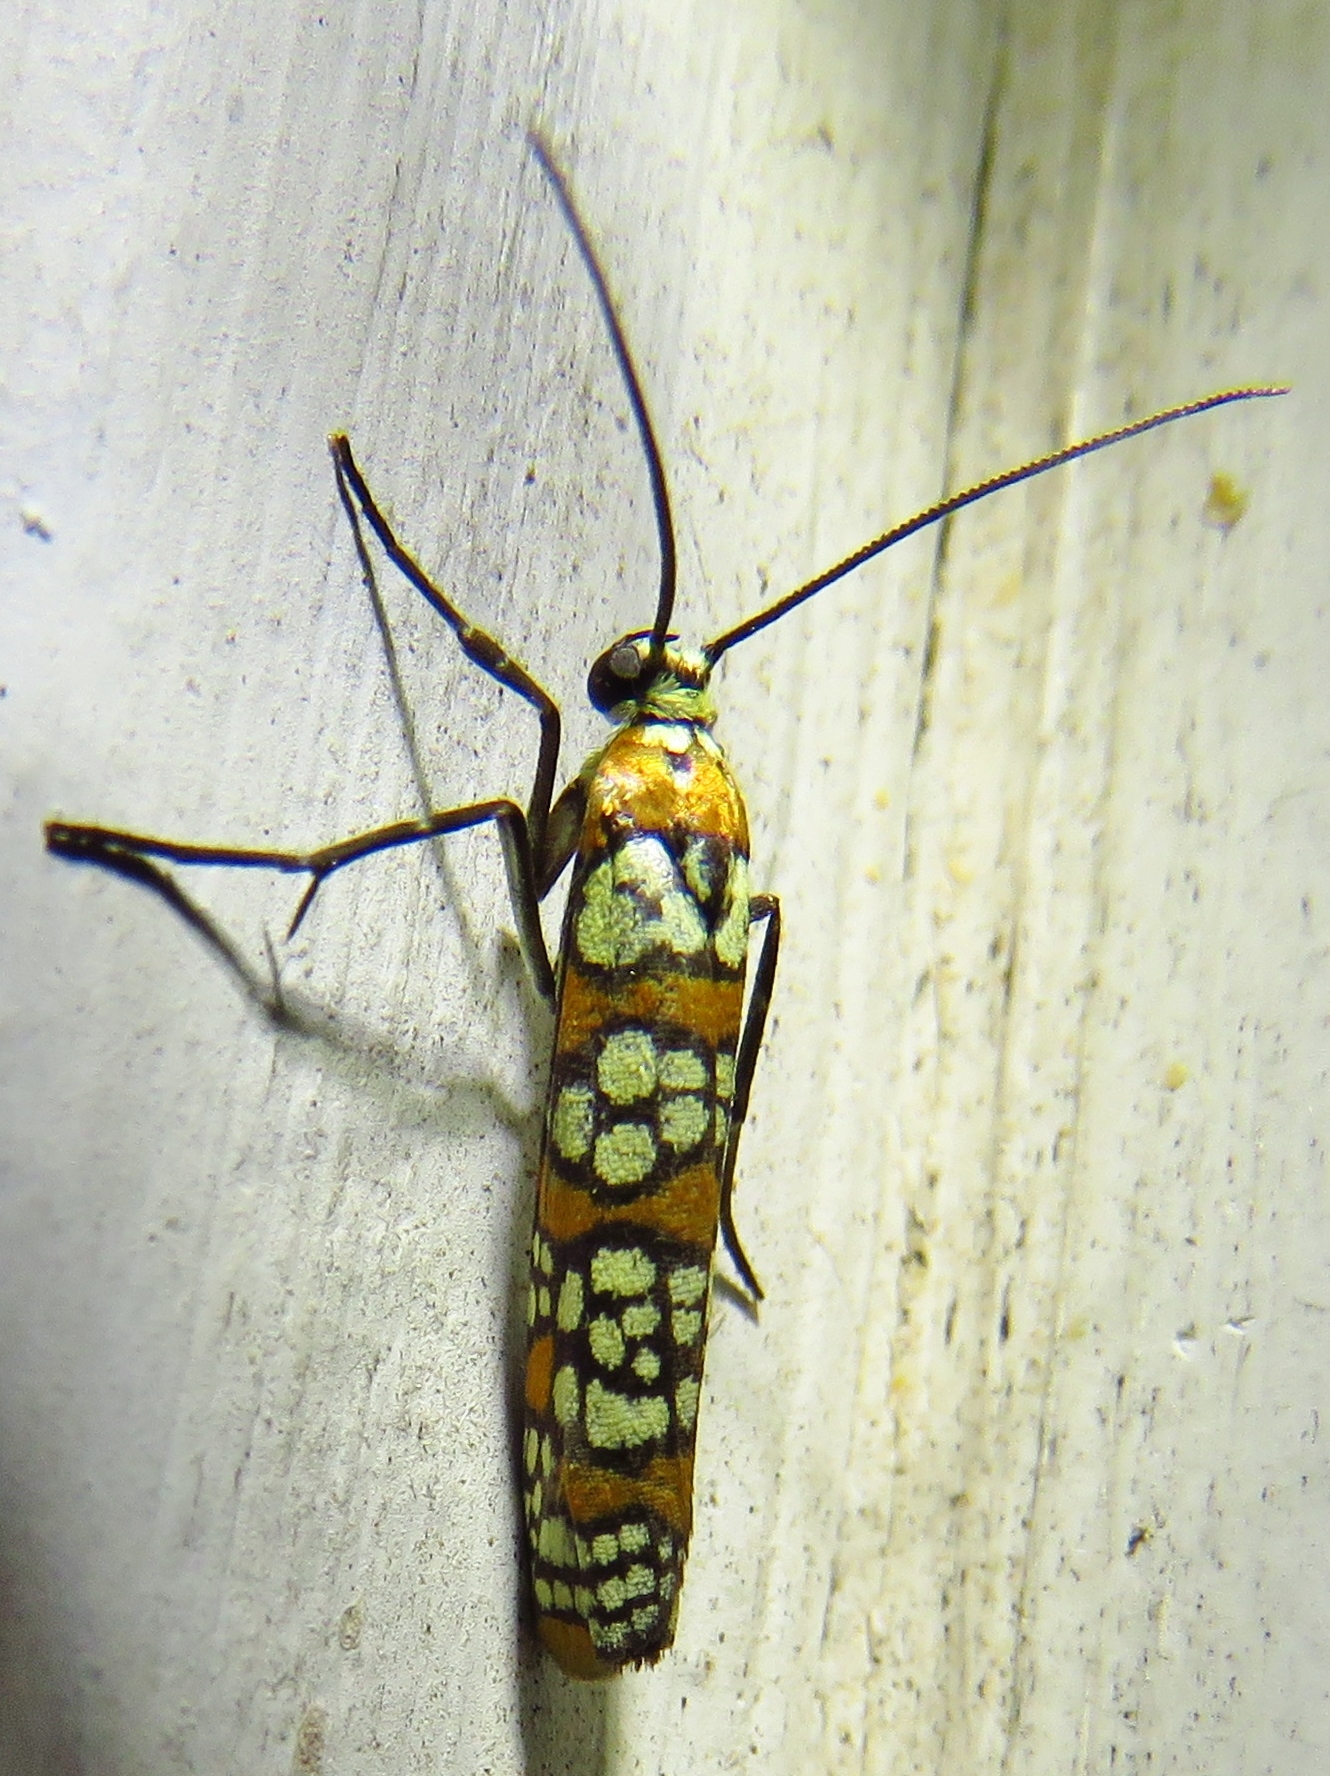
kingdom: Animalia
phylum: Arthropoda
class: Insecta
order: Lepidoptera
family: Attevidae
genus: Atteva
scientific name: Atteva punctella
